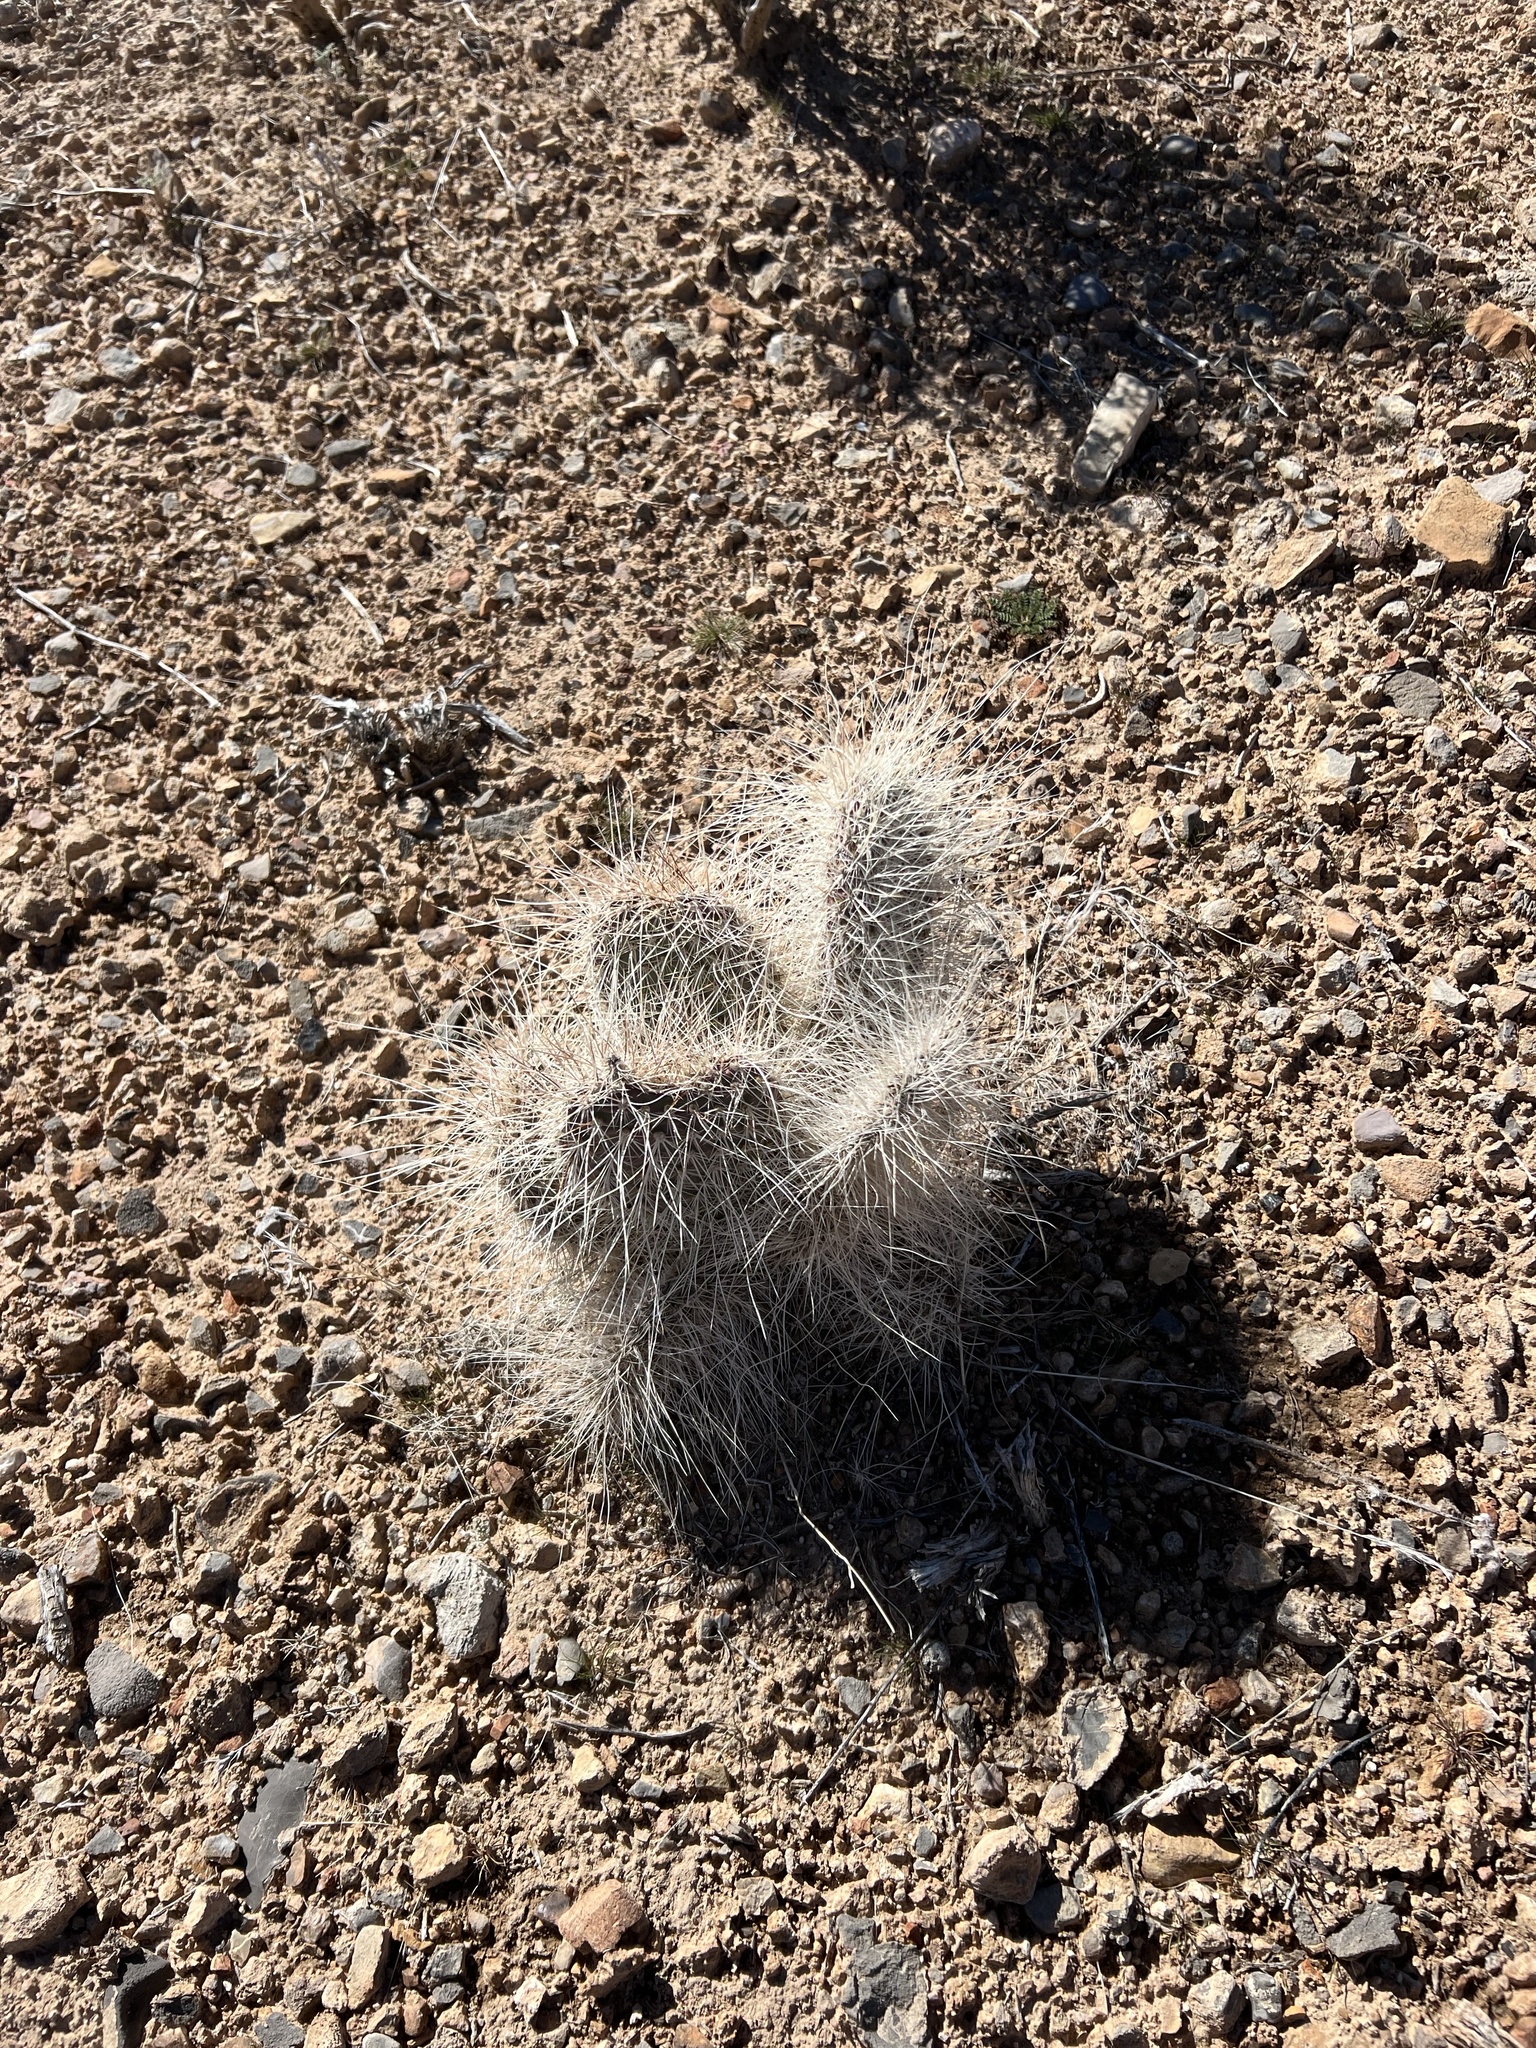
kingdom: Plantae
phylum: Tracheophyta
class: Magnoliopsida
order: Caryophyllales
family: Cactaceae
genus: Opuntia
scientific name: Opuntia polyacantha
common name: Plains prickly-pear
